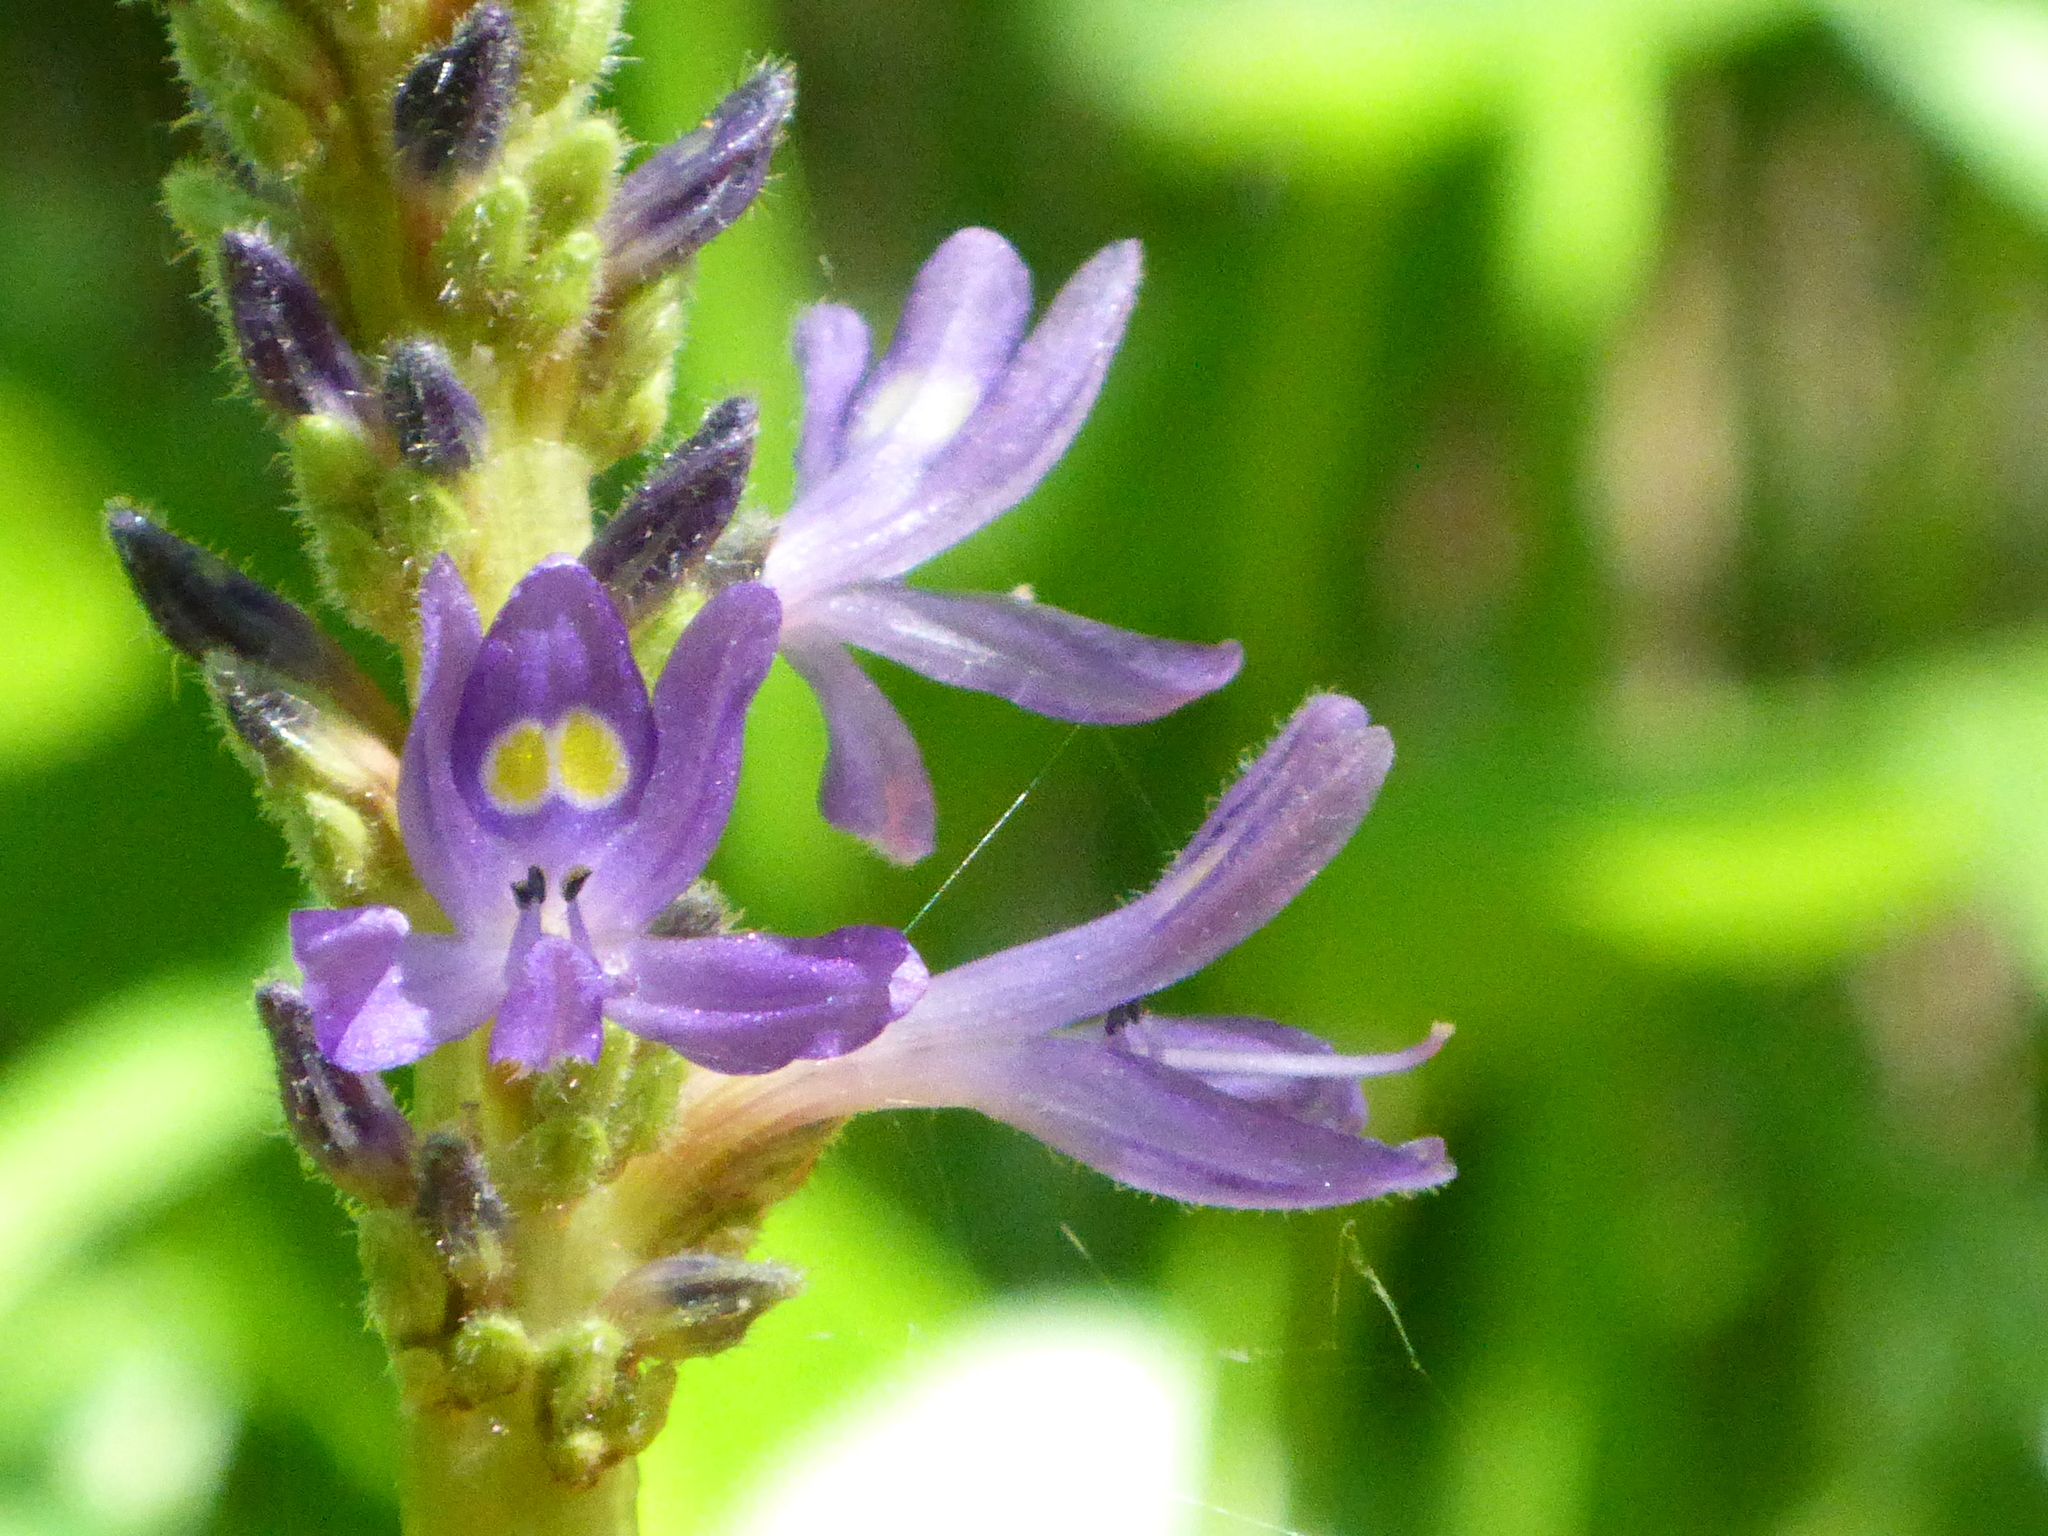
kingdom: Plantae
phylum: Tracheophyta
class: Liliopsida
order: Commelinales
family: Pontederiaceae
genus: Pontederia
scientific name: Pontederia cordata
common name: Pickerelweed
